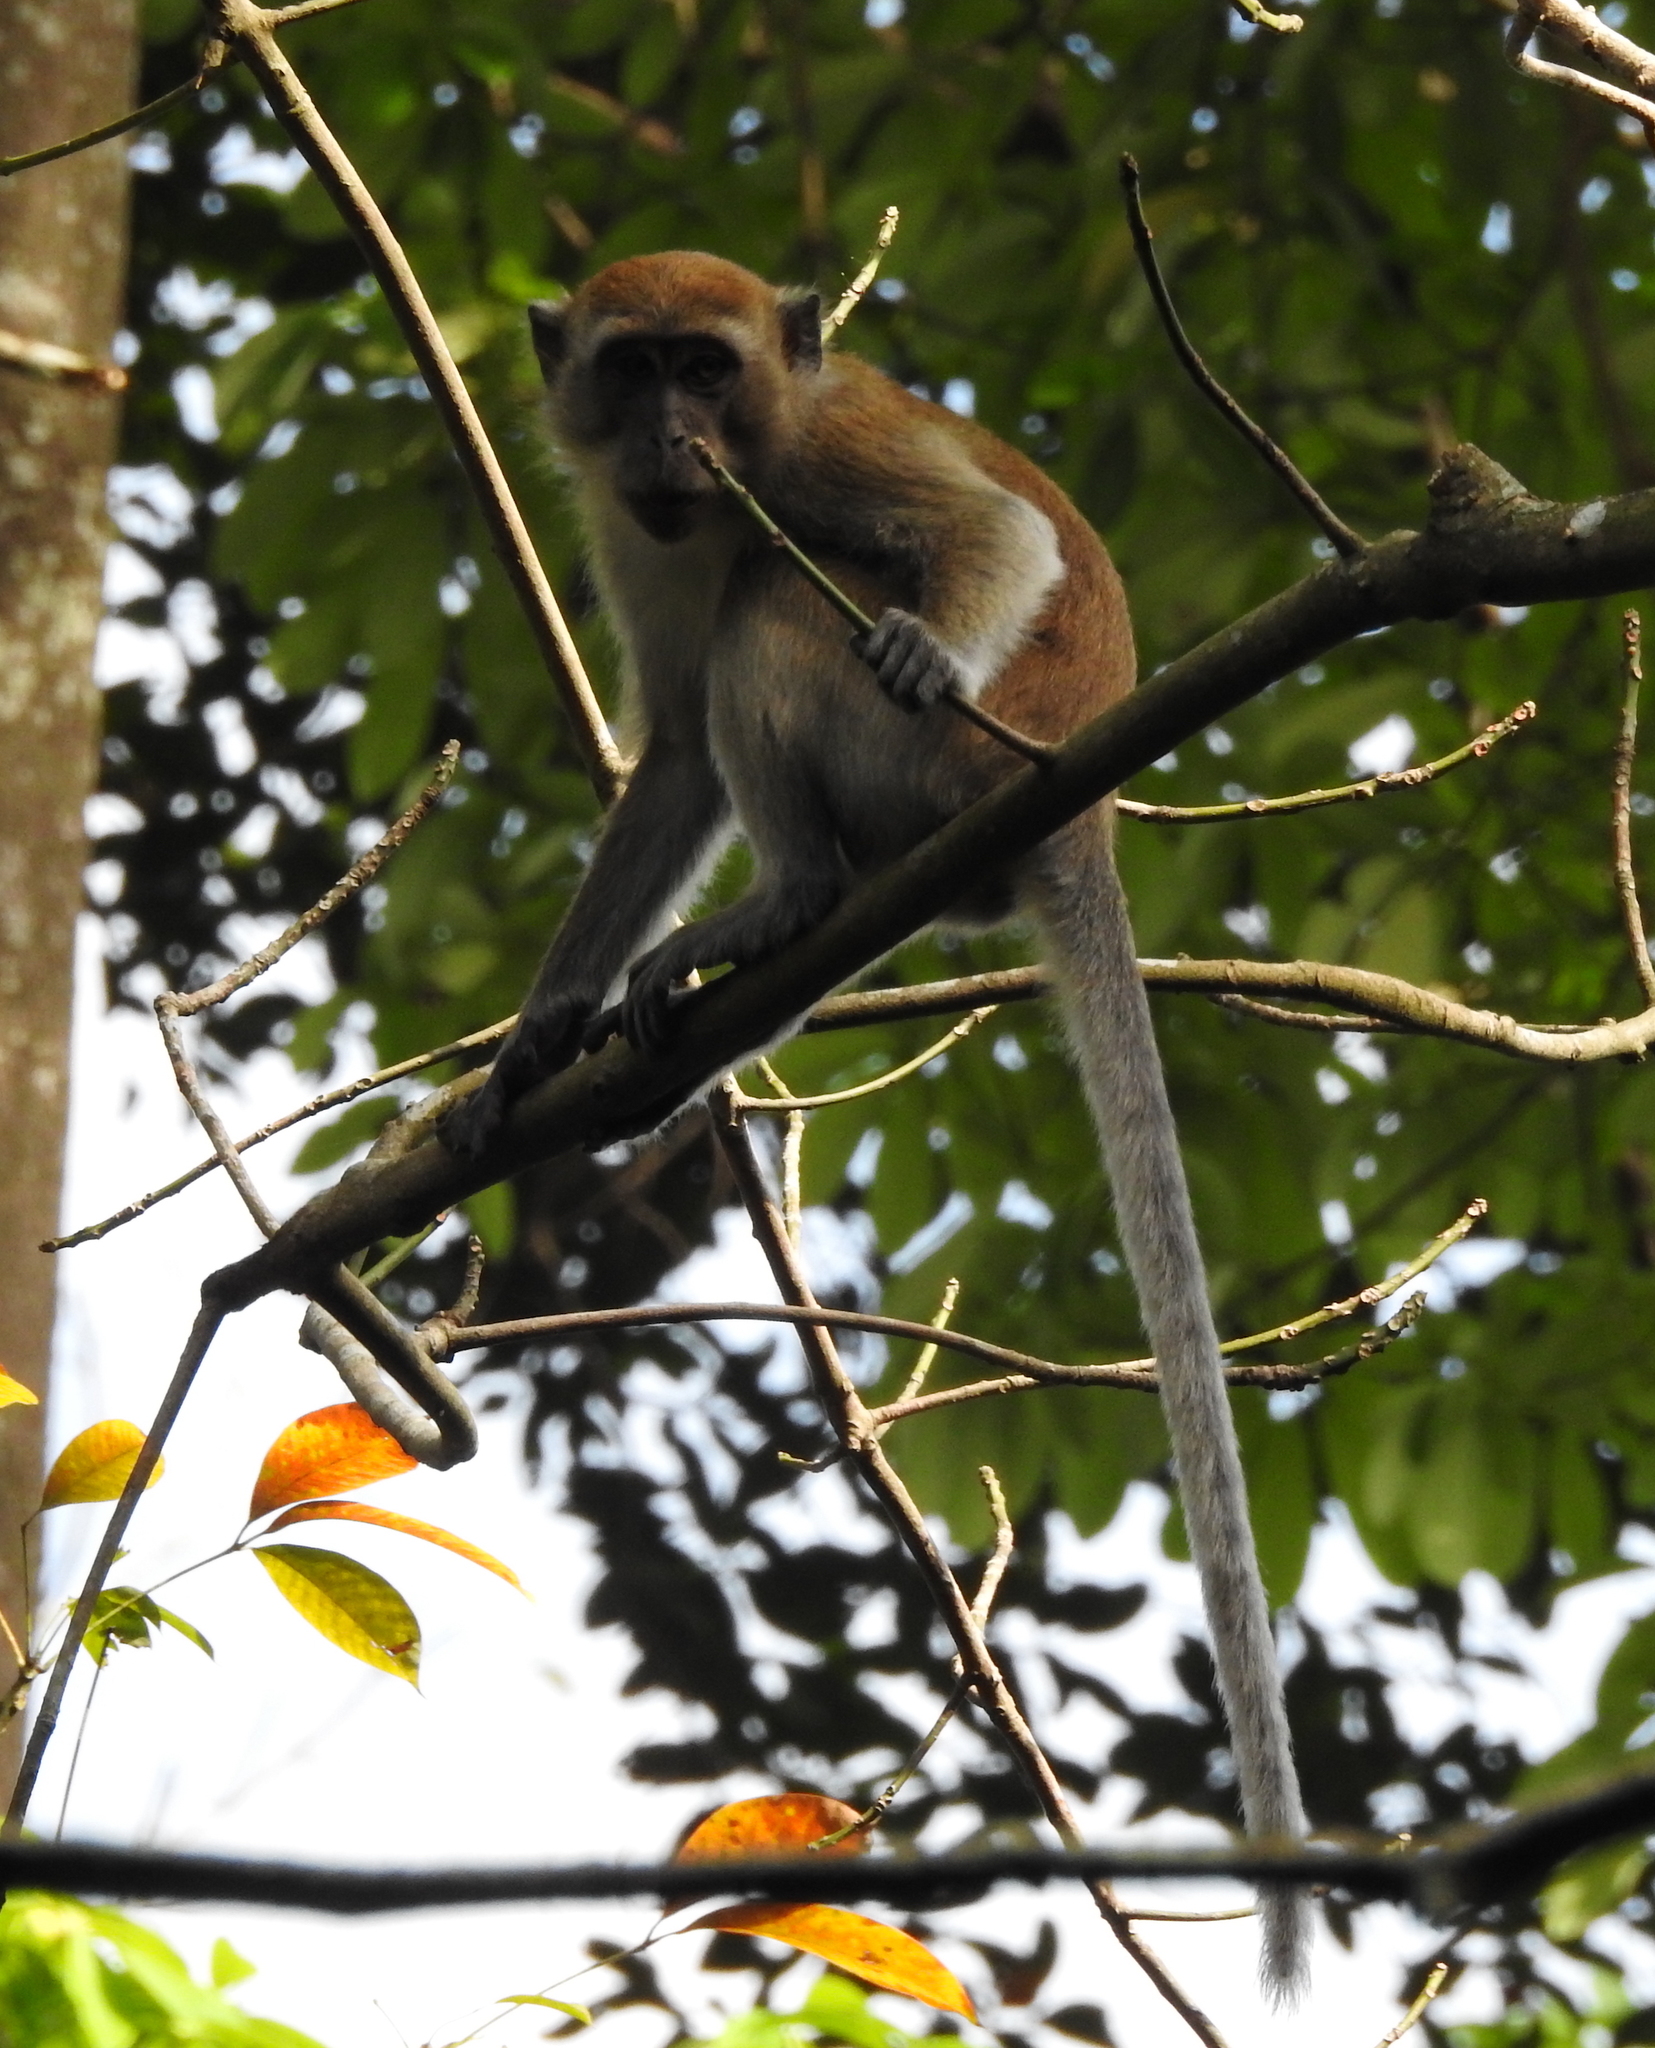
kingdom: Animalia
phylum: Chordata
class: Mammalia
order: Primates
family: Cercopithecidae
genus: Macaca
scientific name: Macaca fascicularis
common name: Crab-eating macaque
